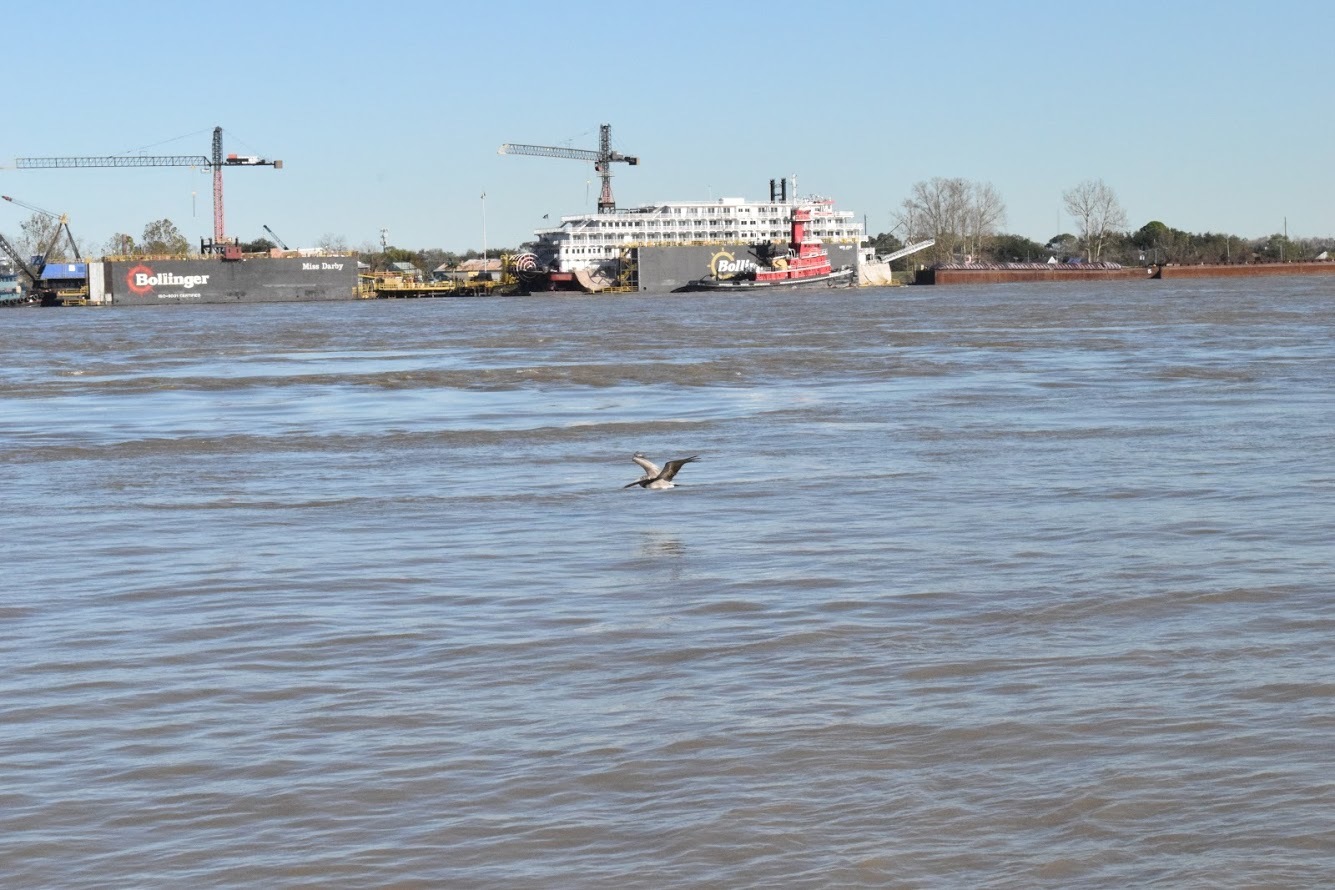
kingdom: Animalia
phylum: Chordata
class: Aves
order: Pelecaniformes
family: Pelecanidae
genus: Pelecanus
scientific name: Pelecanus occidentalis
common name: Brown pelican
